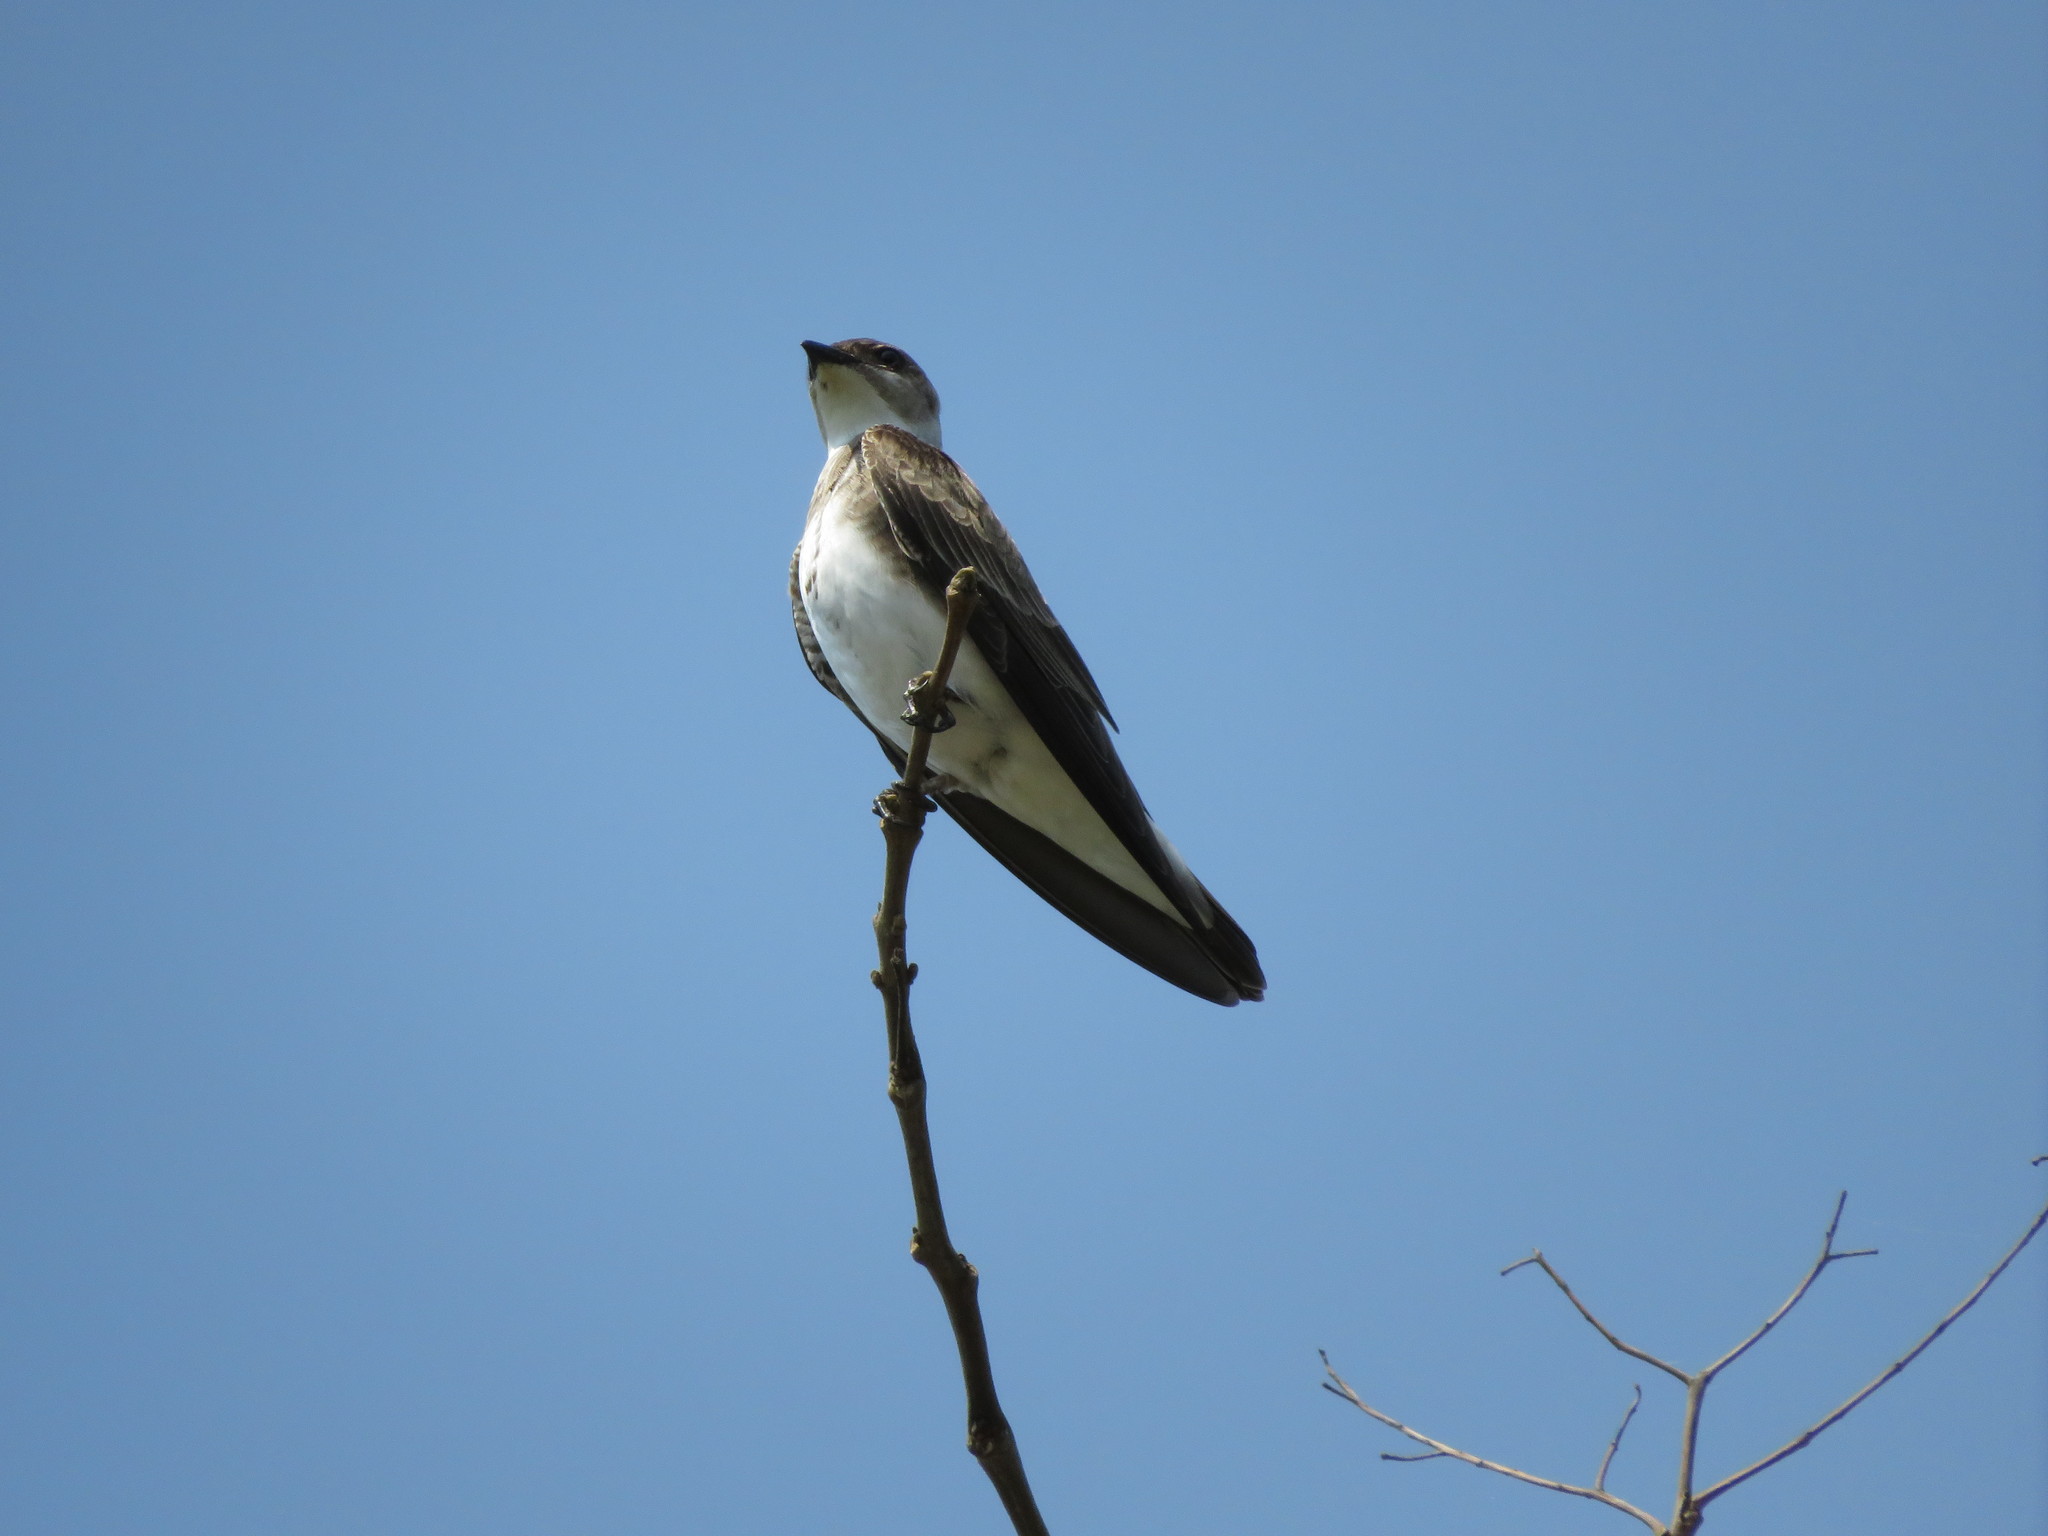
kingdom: Animalia
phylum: Chordata
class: Aves
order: Passeriformes
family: Hirundinidae
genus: Progne
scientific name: Progne tapera
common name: Brown-chested martin
